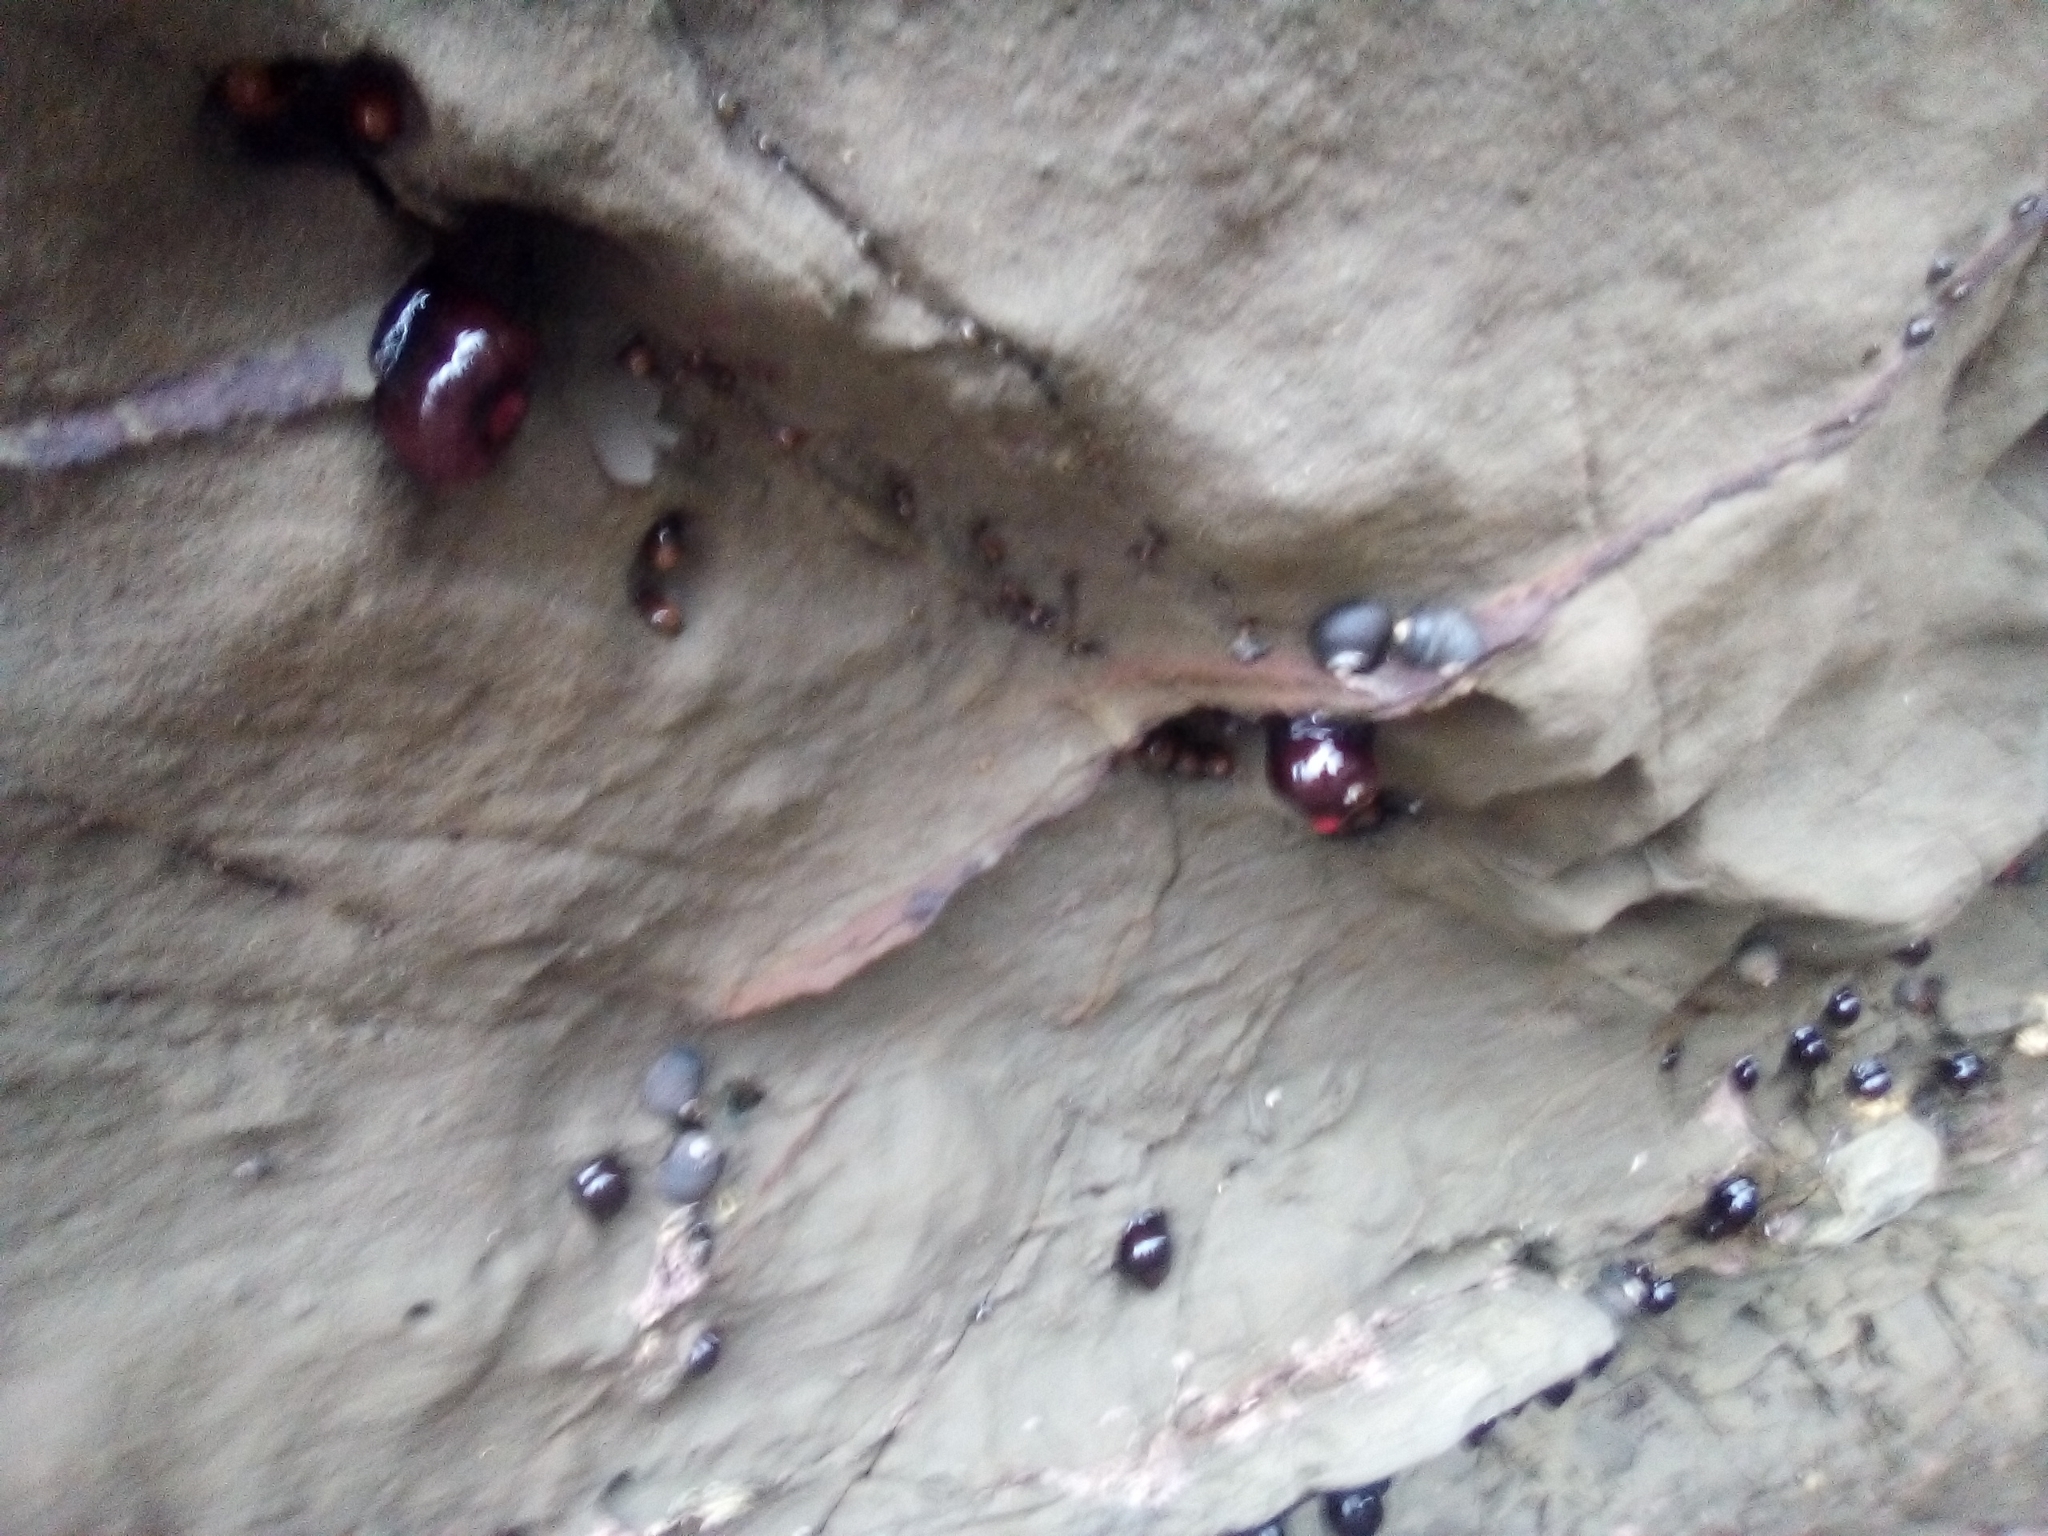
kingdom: Animalia
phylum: Cnidaria
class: Anthozoa
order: Actiniaria
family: Actiniidae
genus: Actinia
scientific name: Actinia tenebrosa
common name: Waratah anemone
